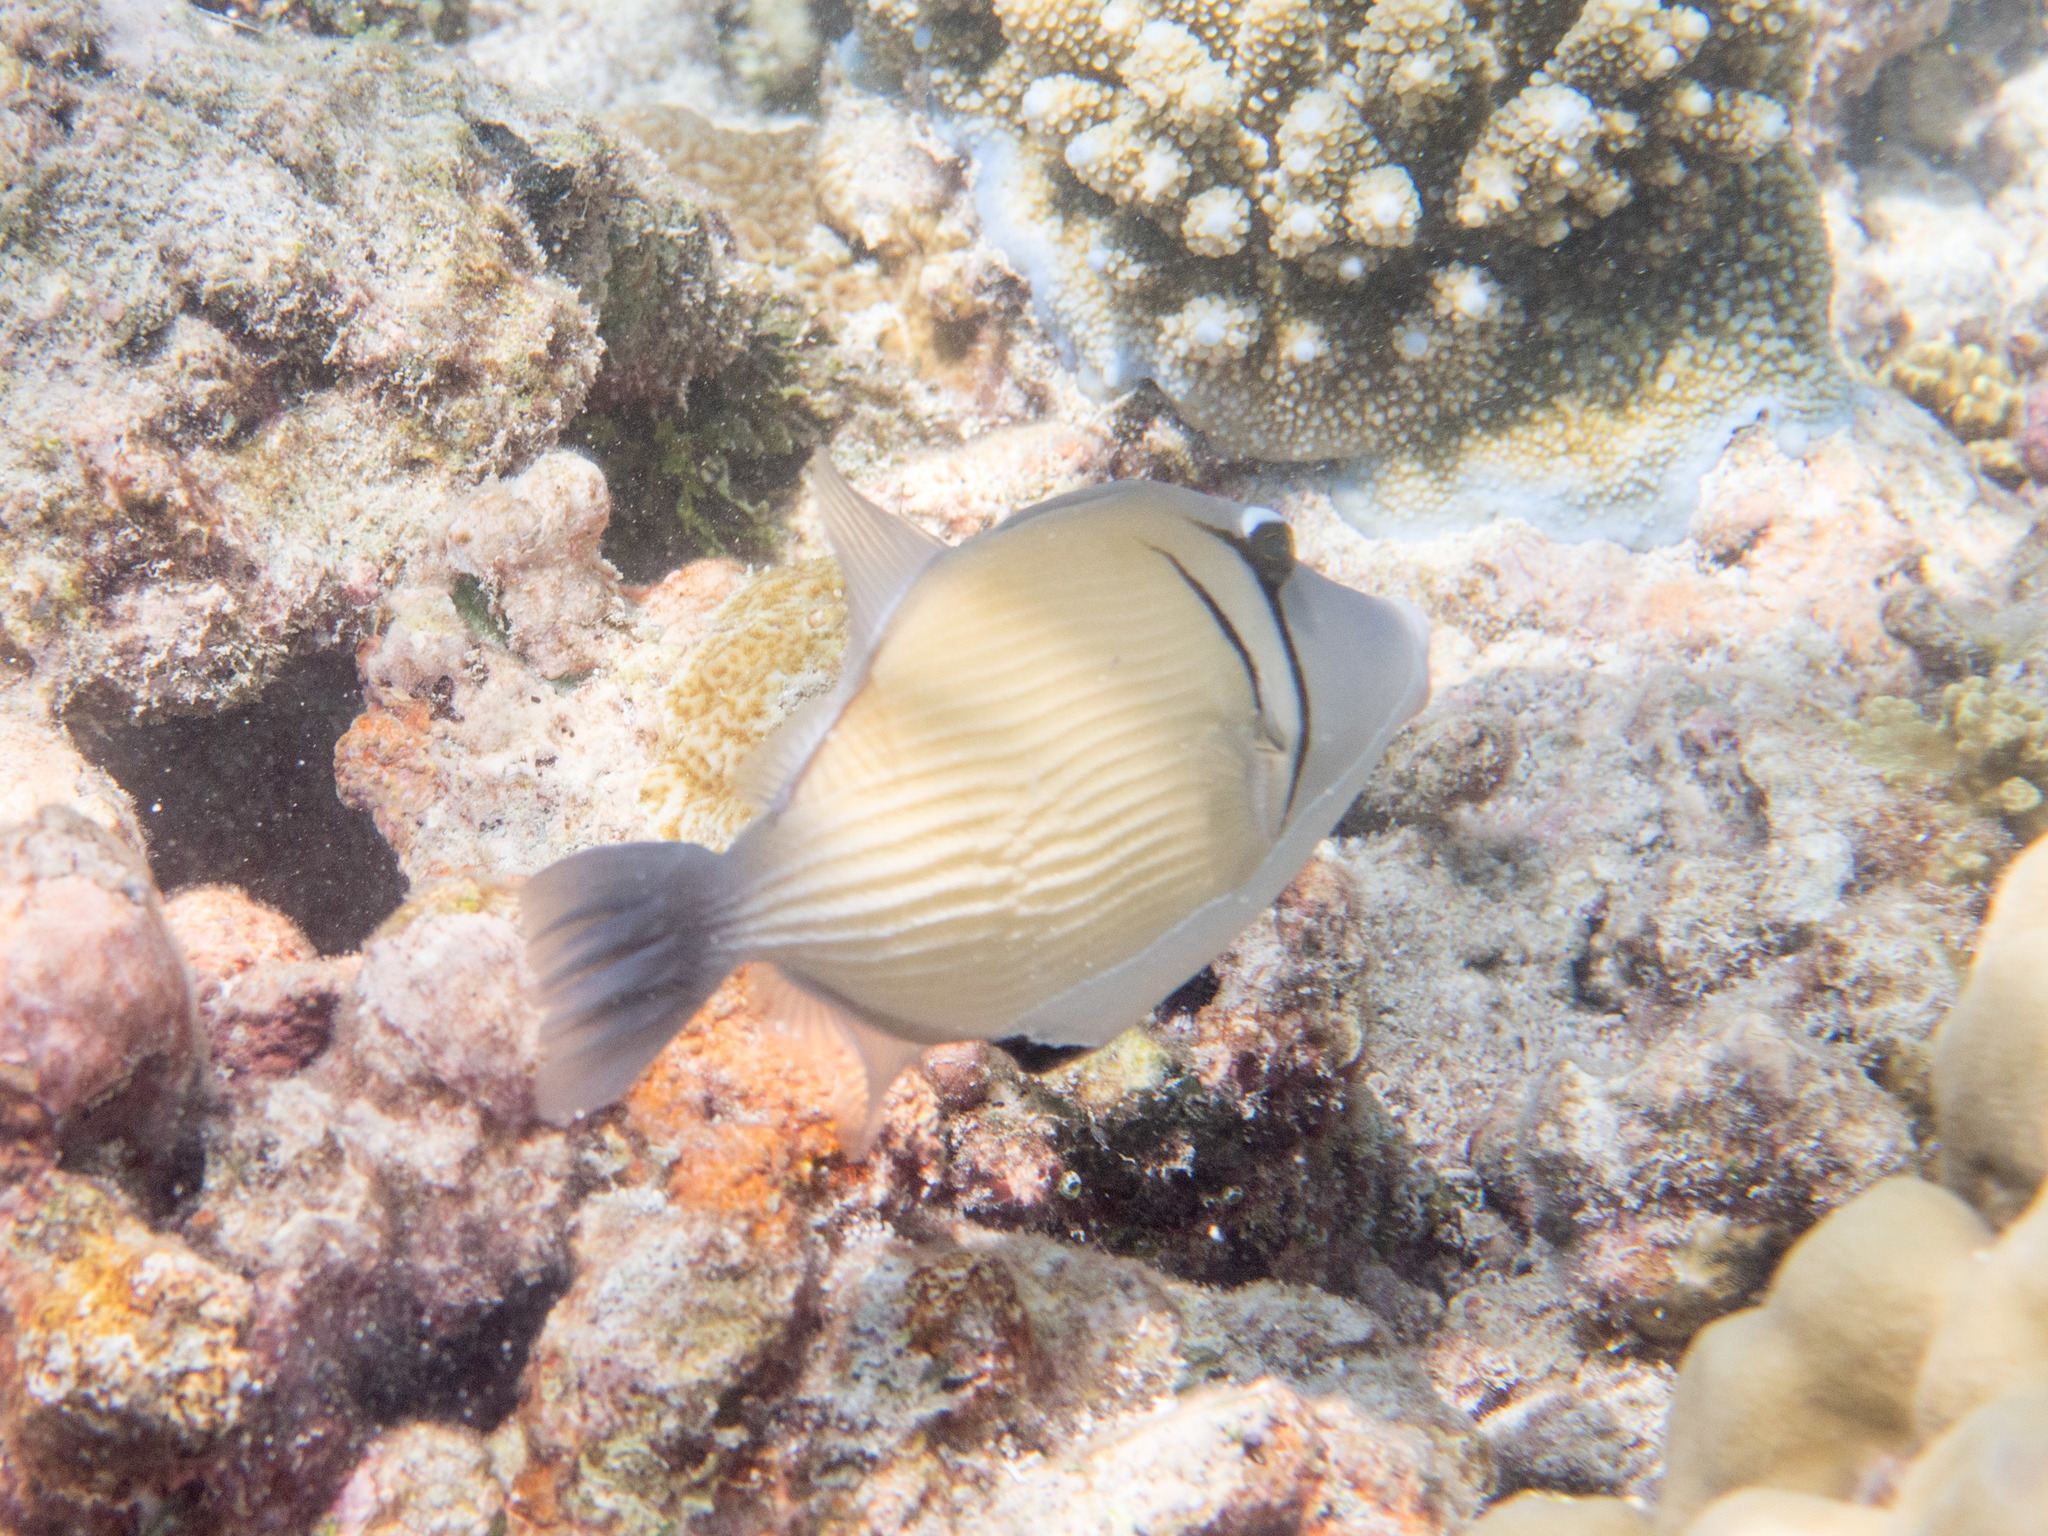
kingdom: Animalia
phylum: Chordata
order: Tetraodontiformes
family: Balistidae
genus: Sufflamen
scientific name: Sufflamen bursa
